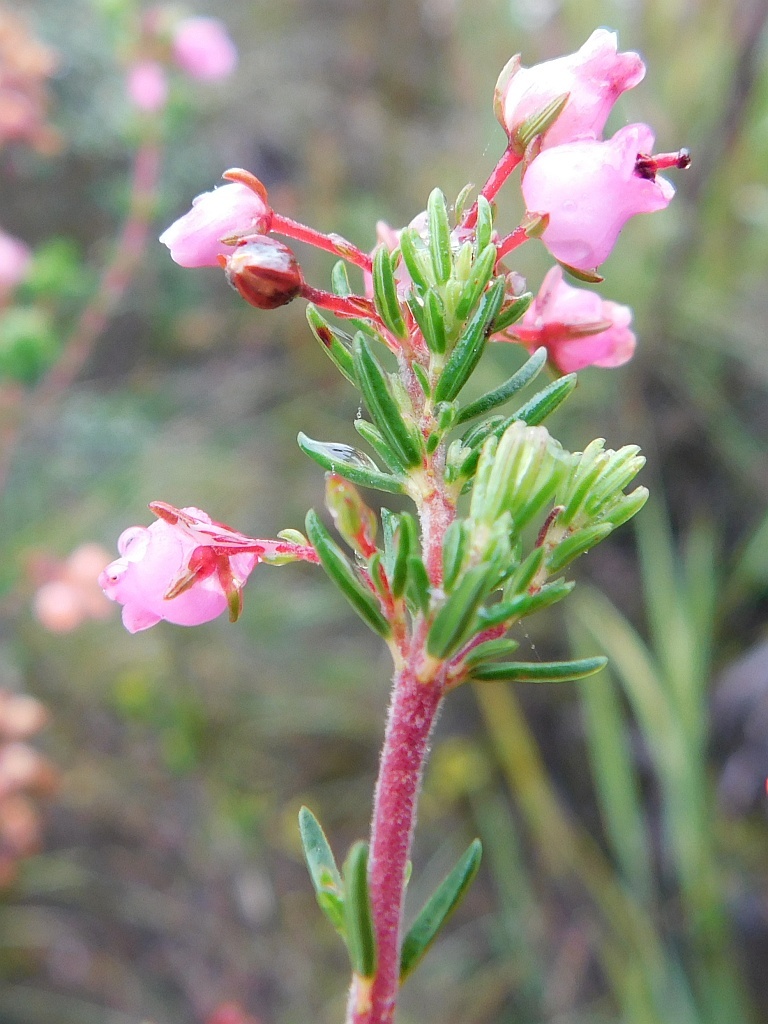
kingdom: Plantae
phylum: Tracheophyta
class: Magnoliopsida
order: Ericales
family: Ericaceae
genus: Erica
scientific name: Erica lateralis
